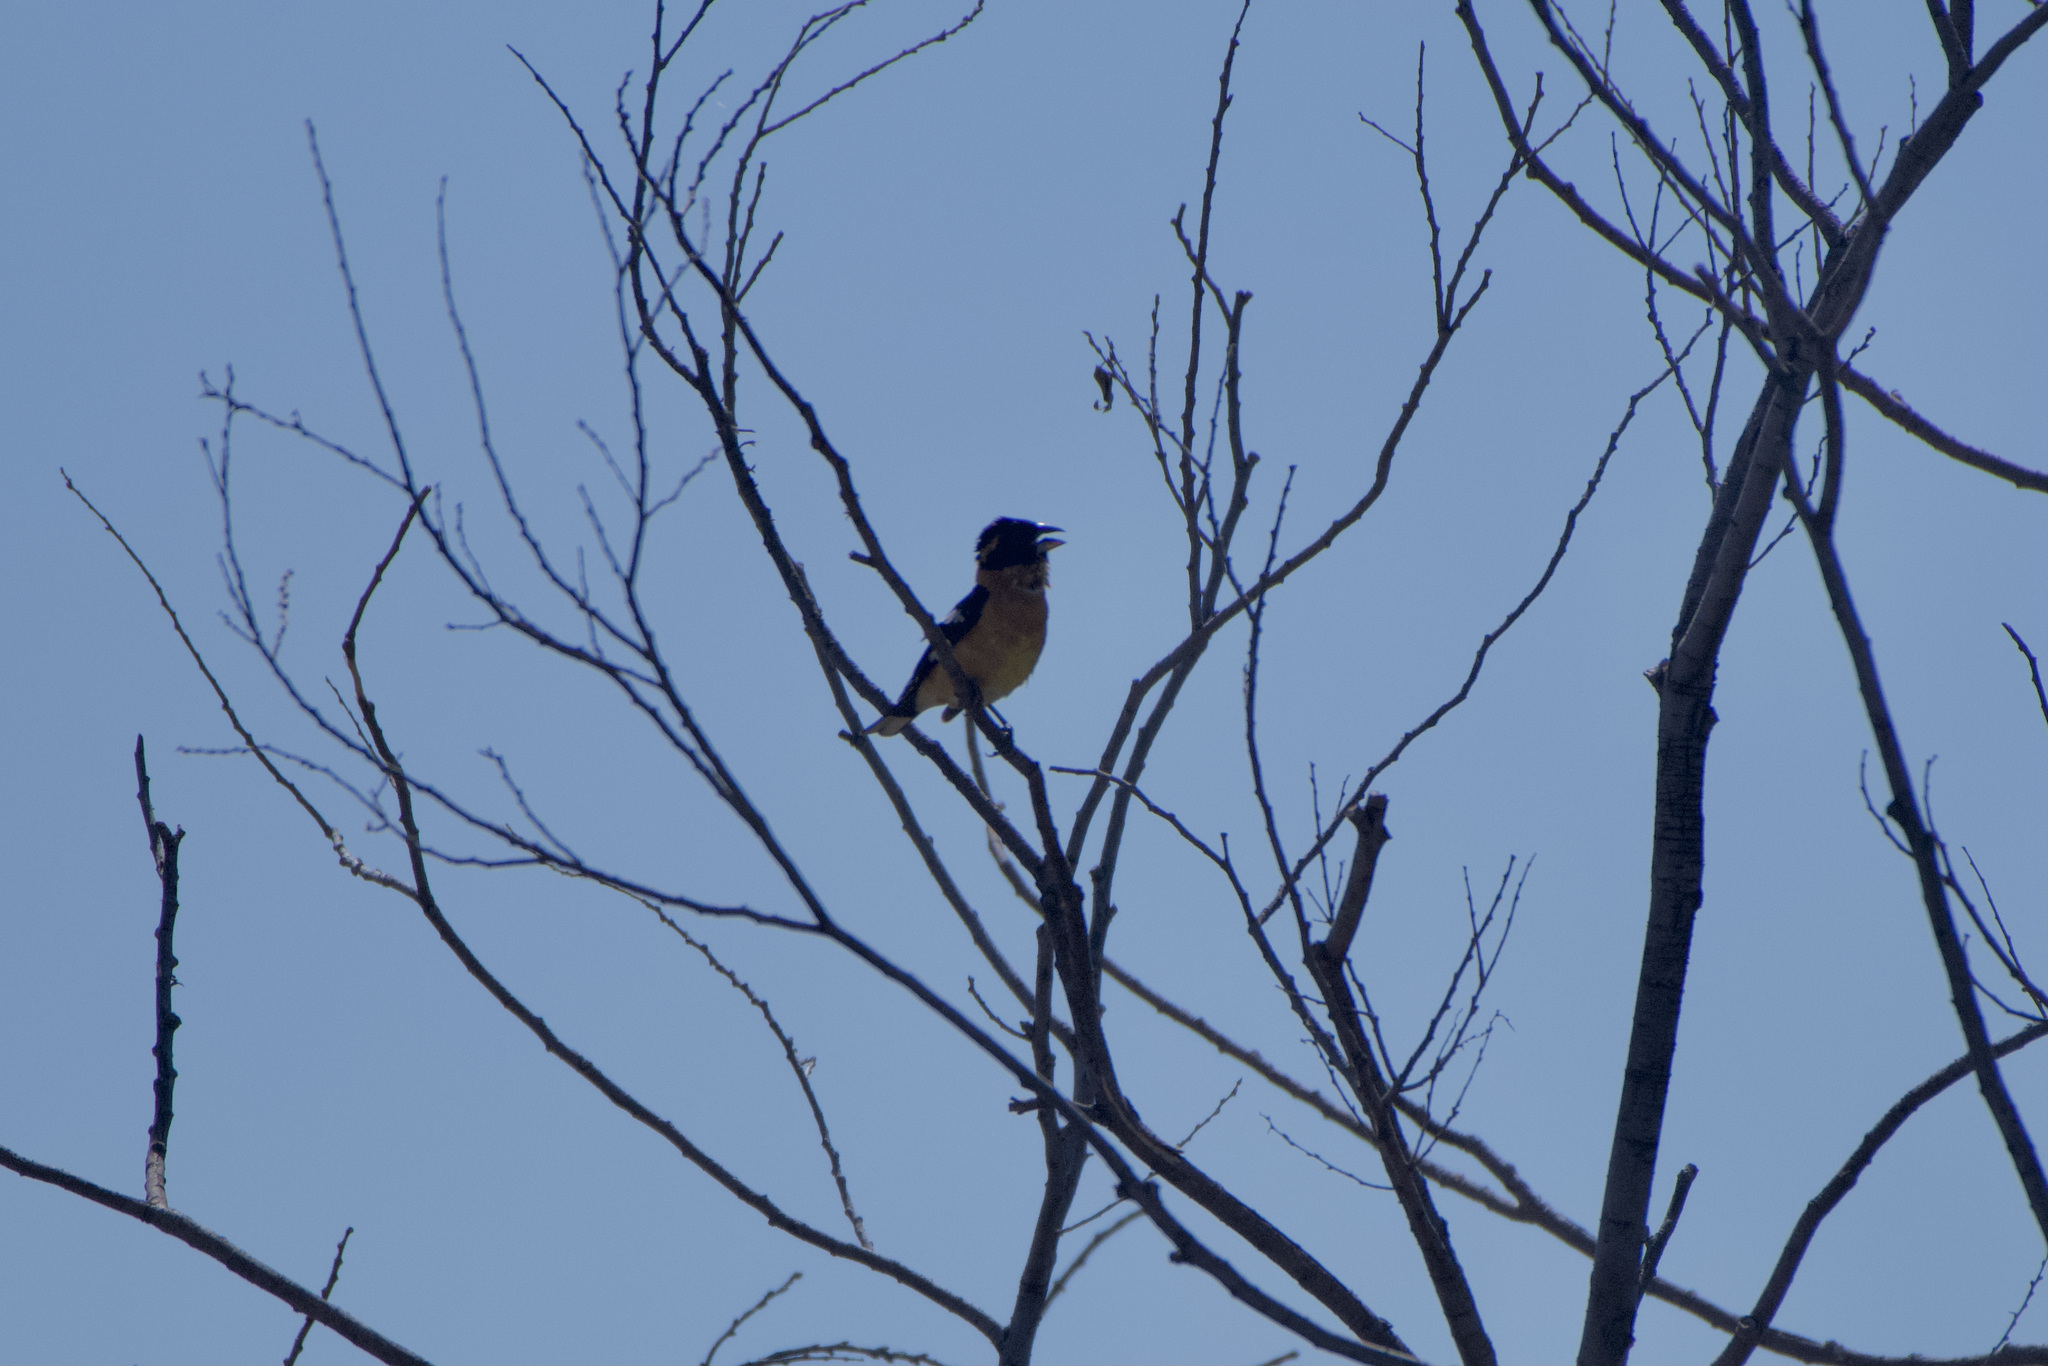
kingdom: Animalia
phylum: Chordata
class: Aves
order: Passeriformes
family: Cardinalidae
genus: Pheucticus
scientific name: Pheucticus melanocephalus
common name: Black-headed grosbeak
